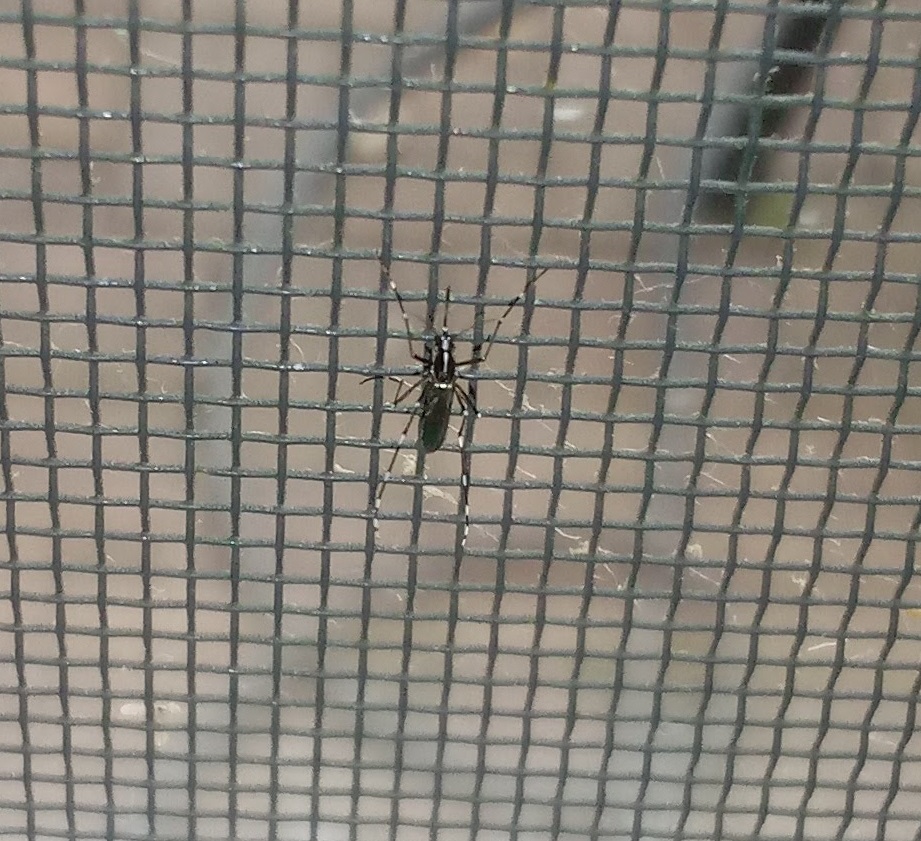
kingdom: Animalia
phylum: Arthropoda
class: Insecta
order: Diptera
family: Culicidae
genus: Aedes
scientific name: Aedes albopictus
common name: Tiger mosquito
